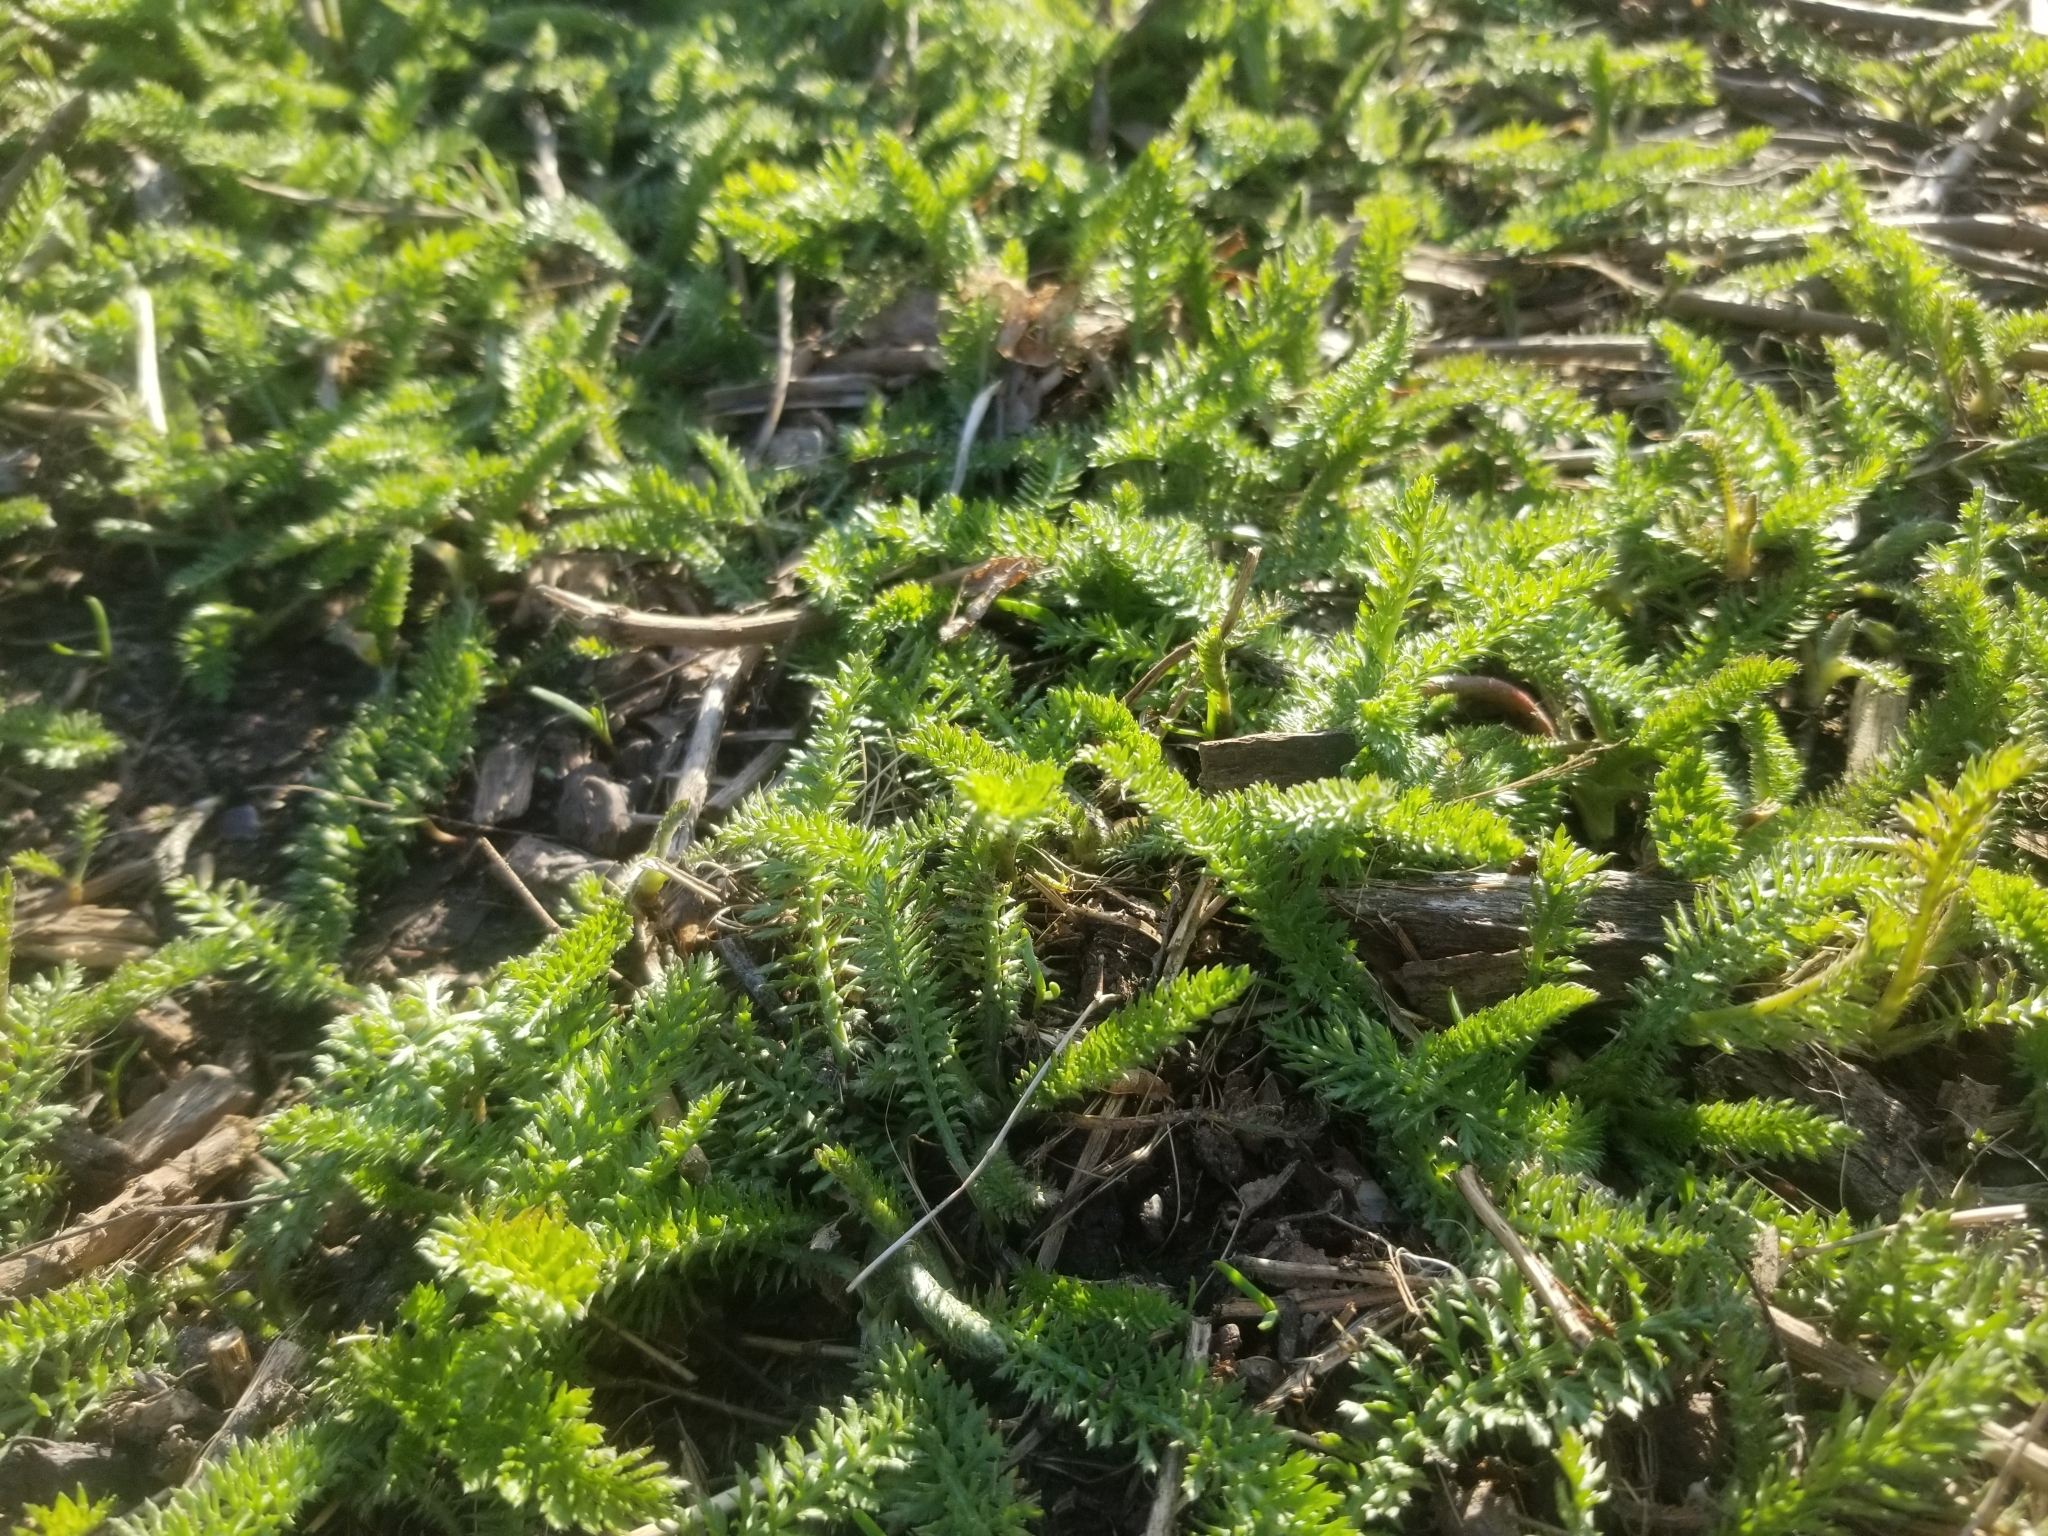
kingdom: Plantae
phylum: Tracheophyta
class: Magnoliopsida
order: Asterales
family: Asteraceae
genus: Achillea
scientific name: Achillea millefolium
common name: Yarrow
